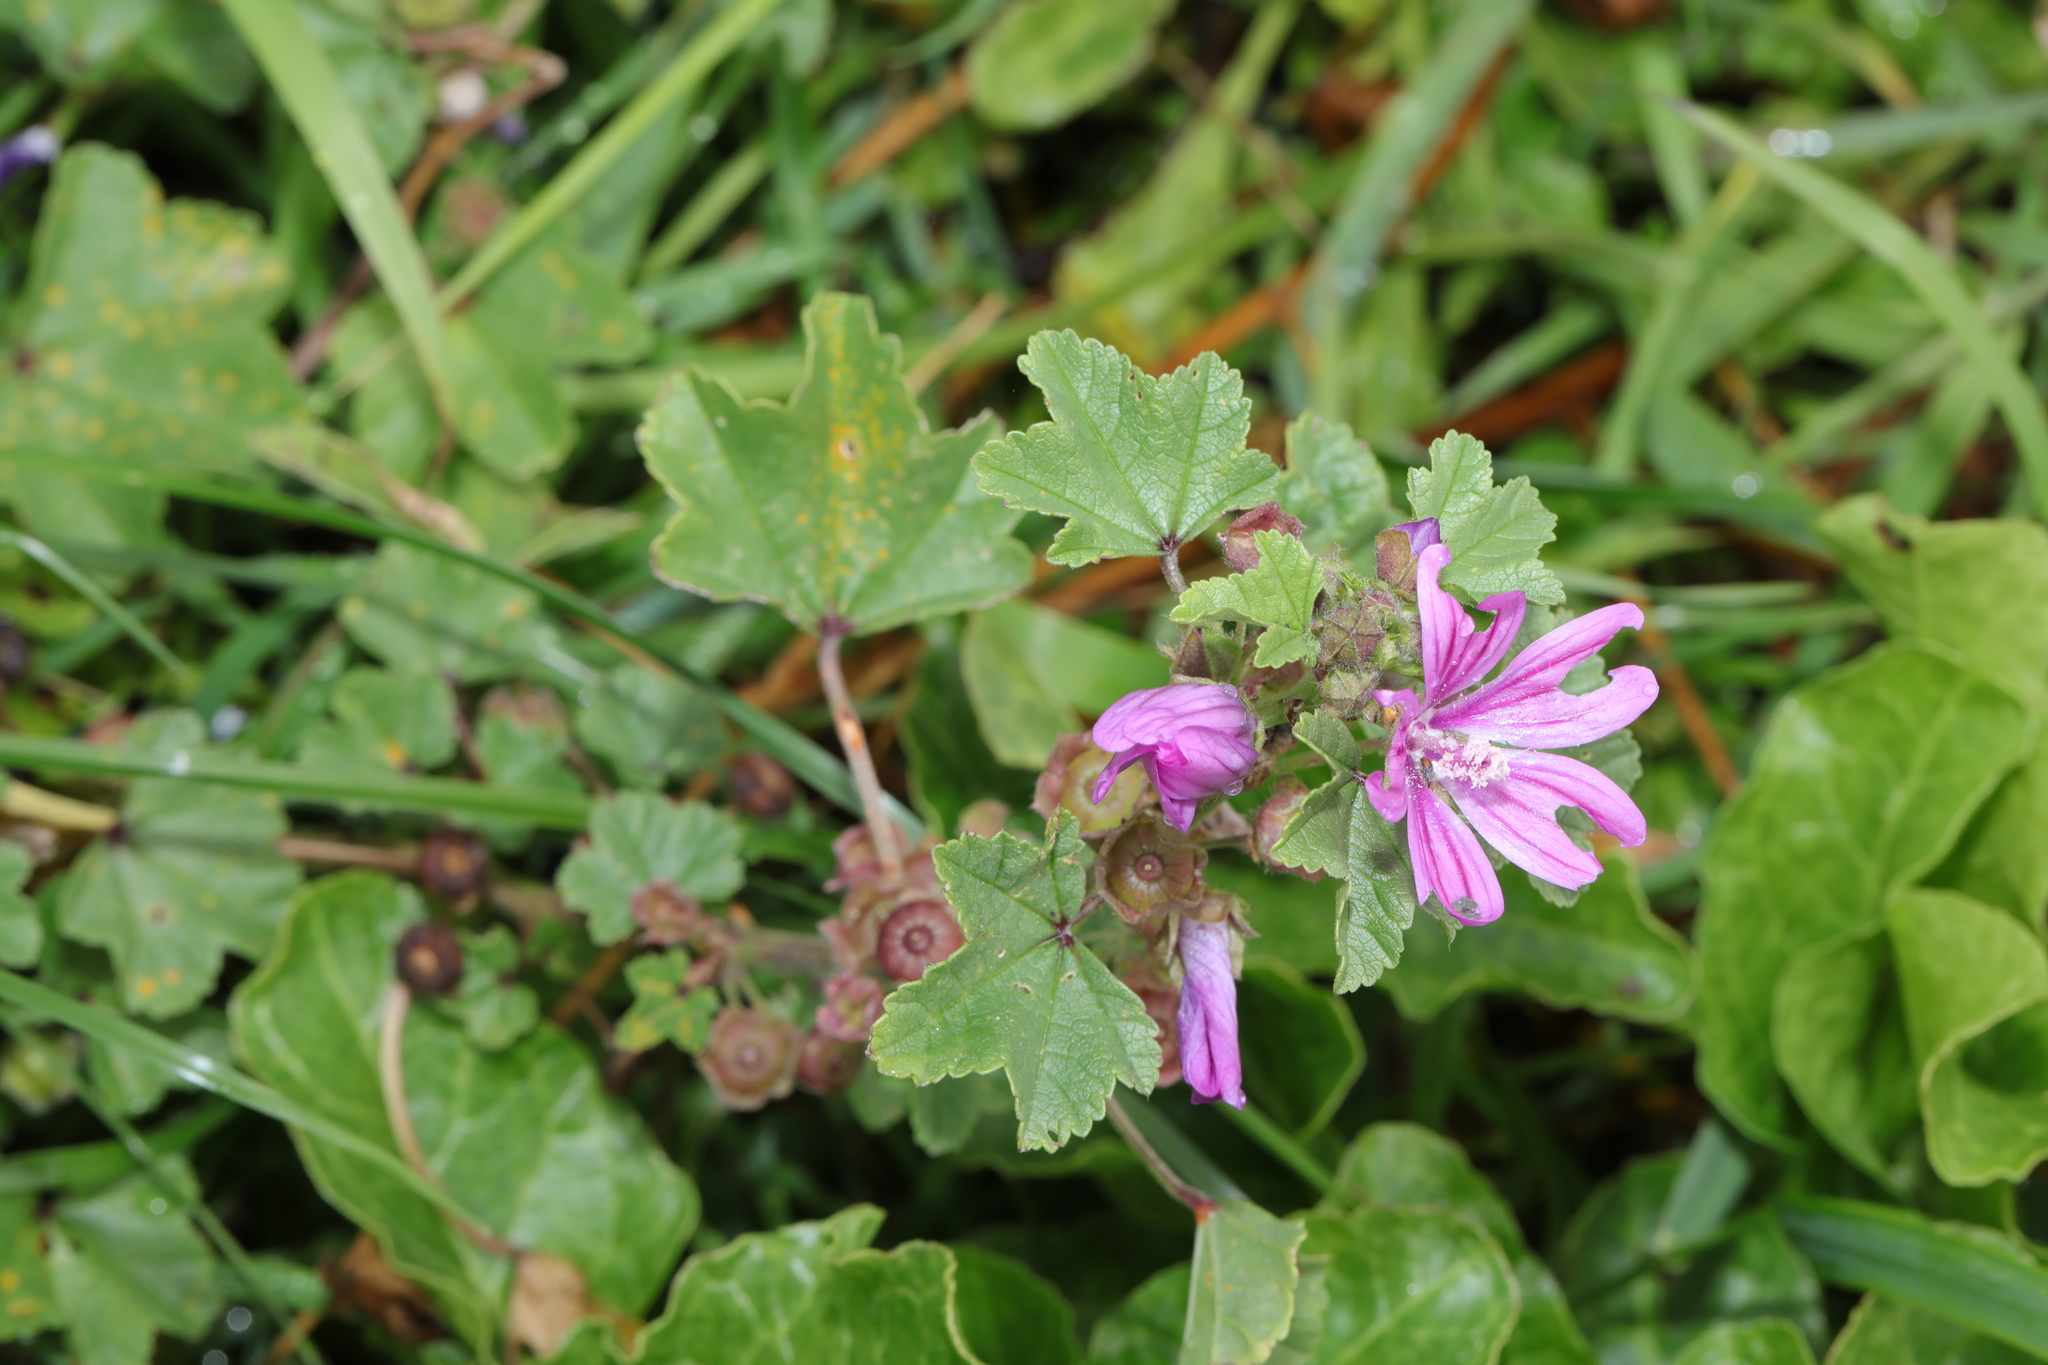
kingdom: Plantae
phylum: Tracheophyta
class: Magnoliopsida
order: Malvales
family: Malvaceae
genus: Malva
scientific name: Malva sylvestris
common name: Common mallow
